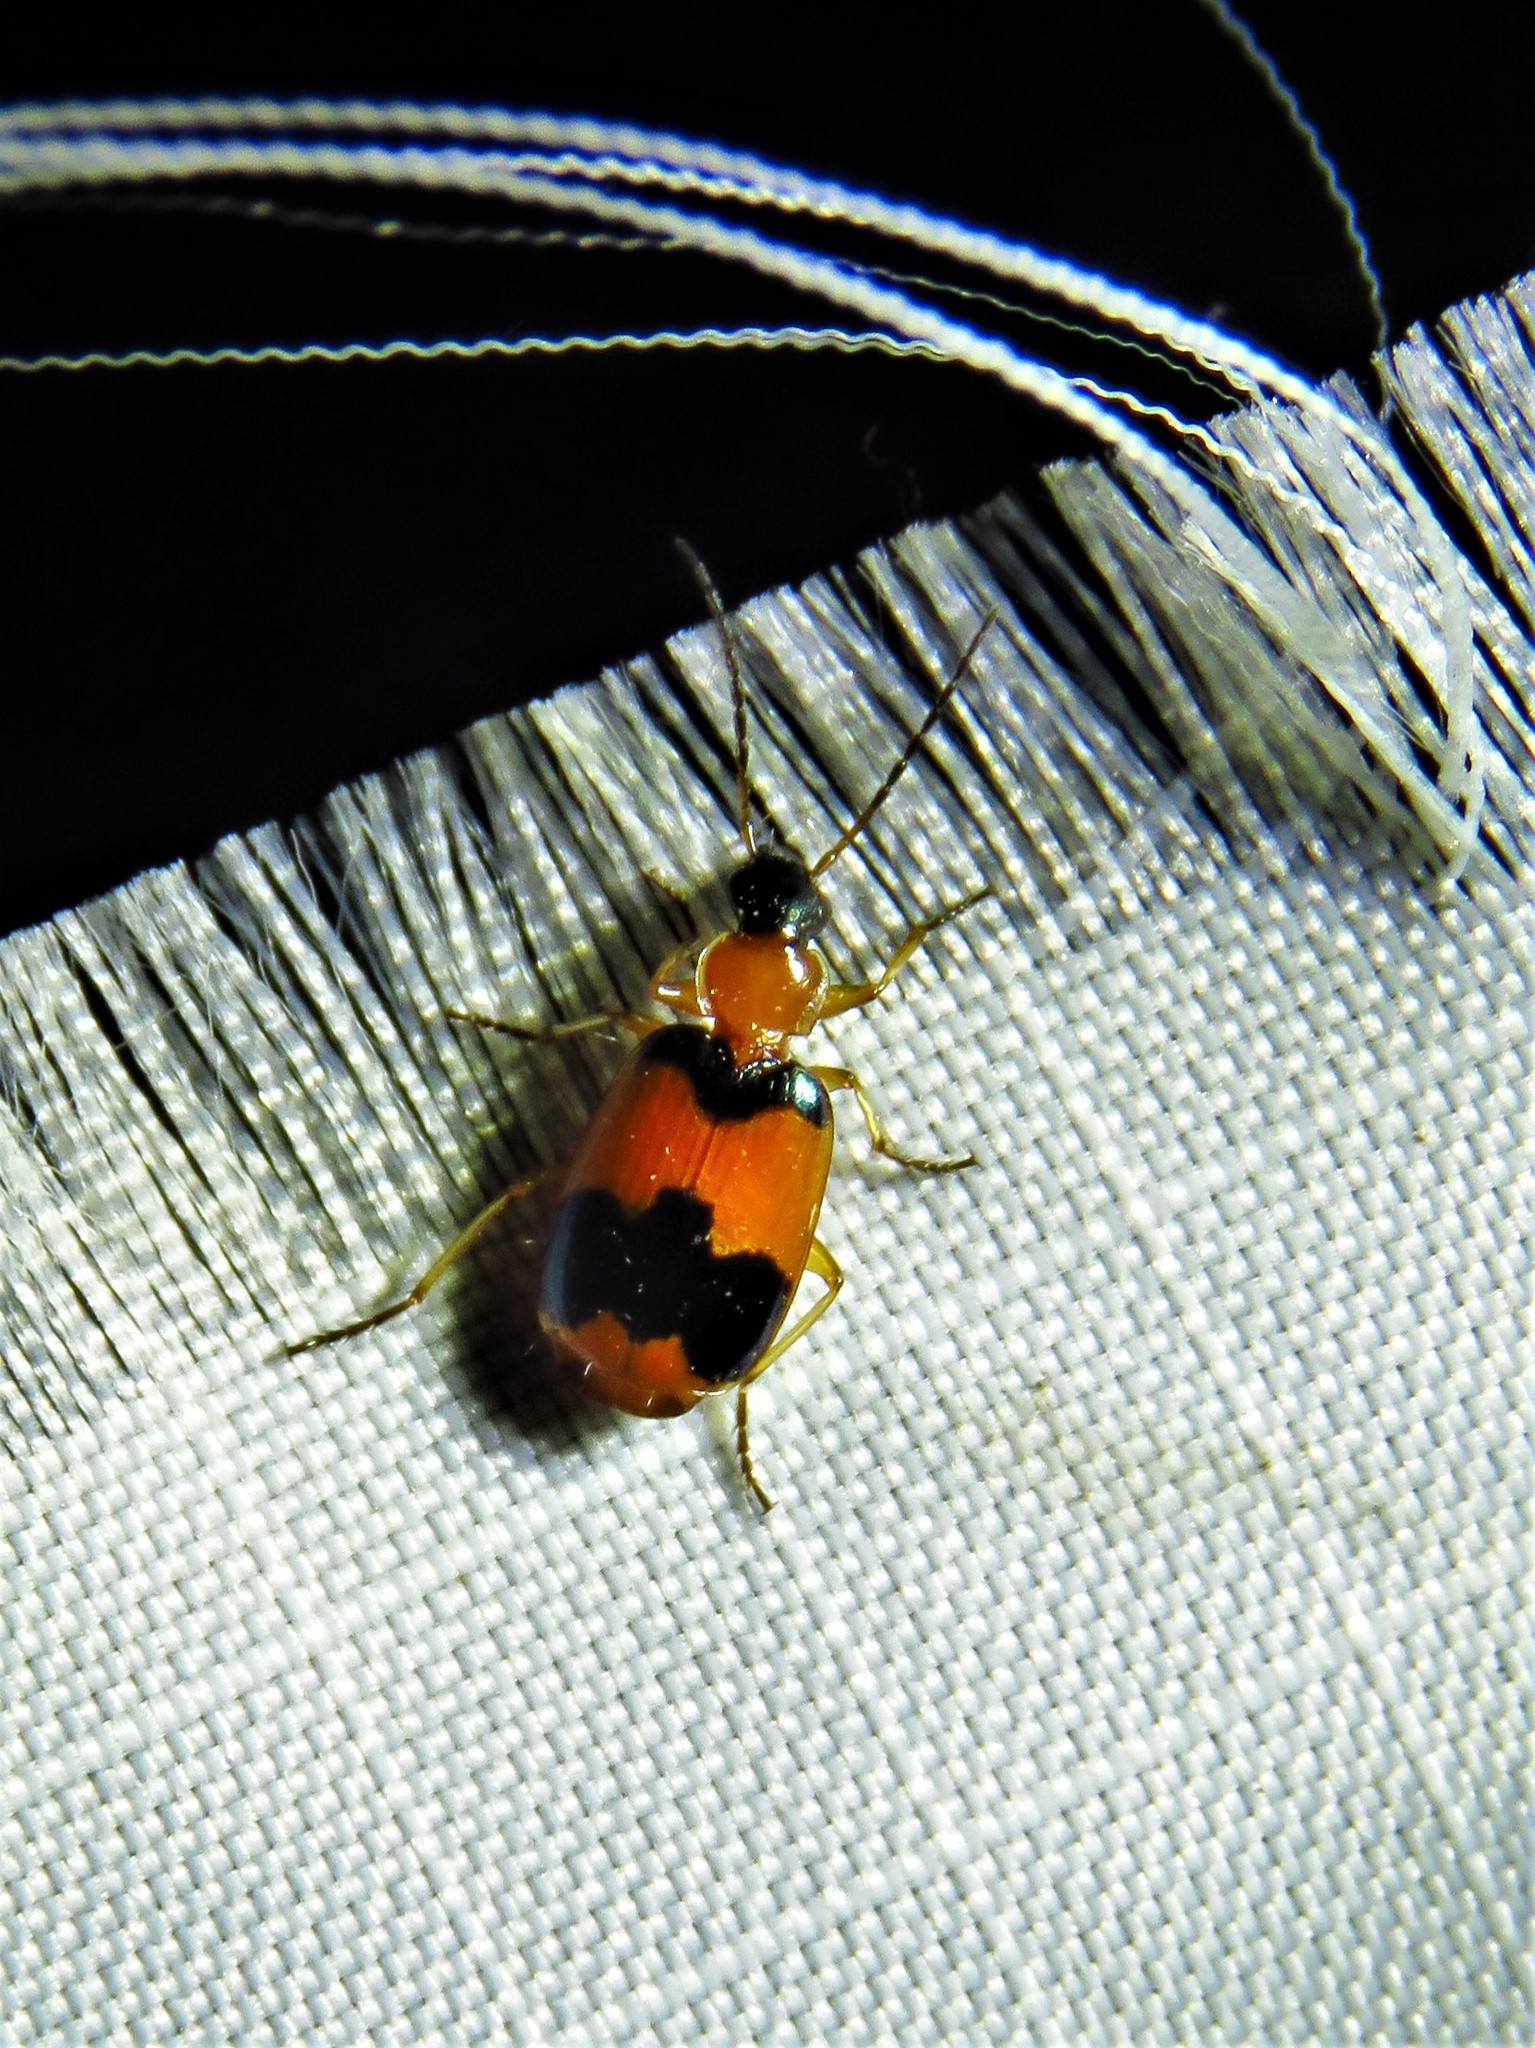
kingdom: Animalia
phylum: Arthropoda
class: Insecta
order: Coleoptera
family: Carabidae
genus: Lebia
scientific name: Lebia pulchella
